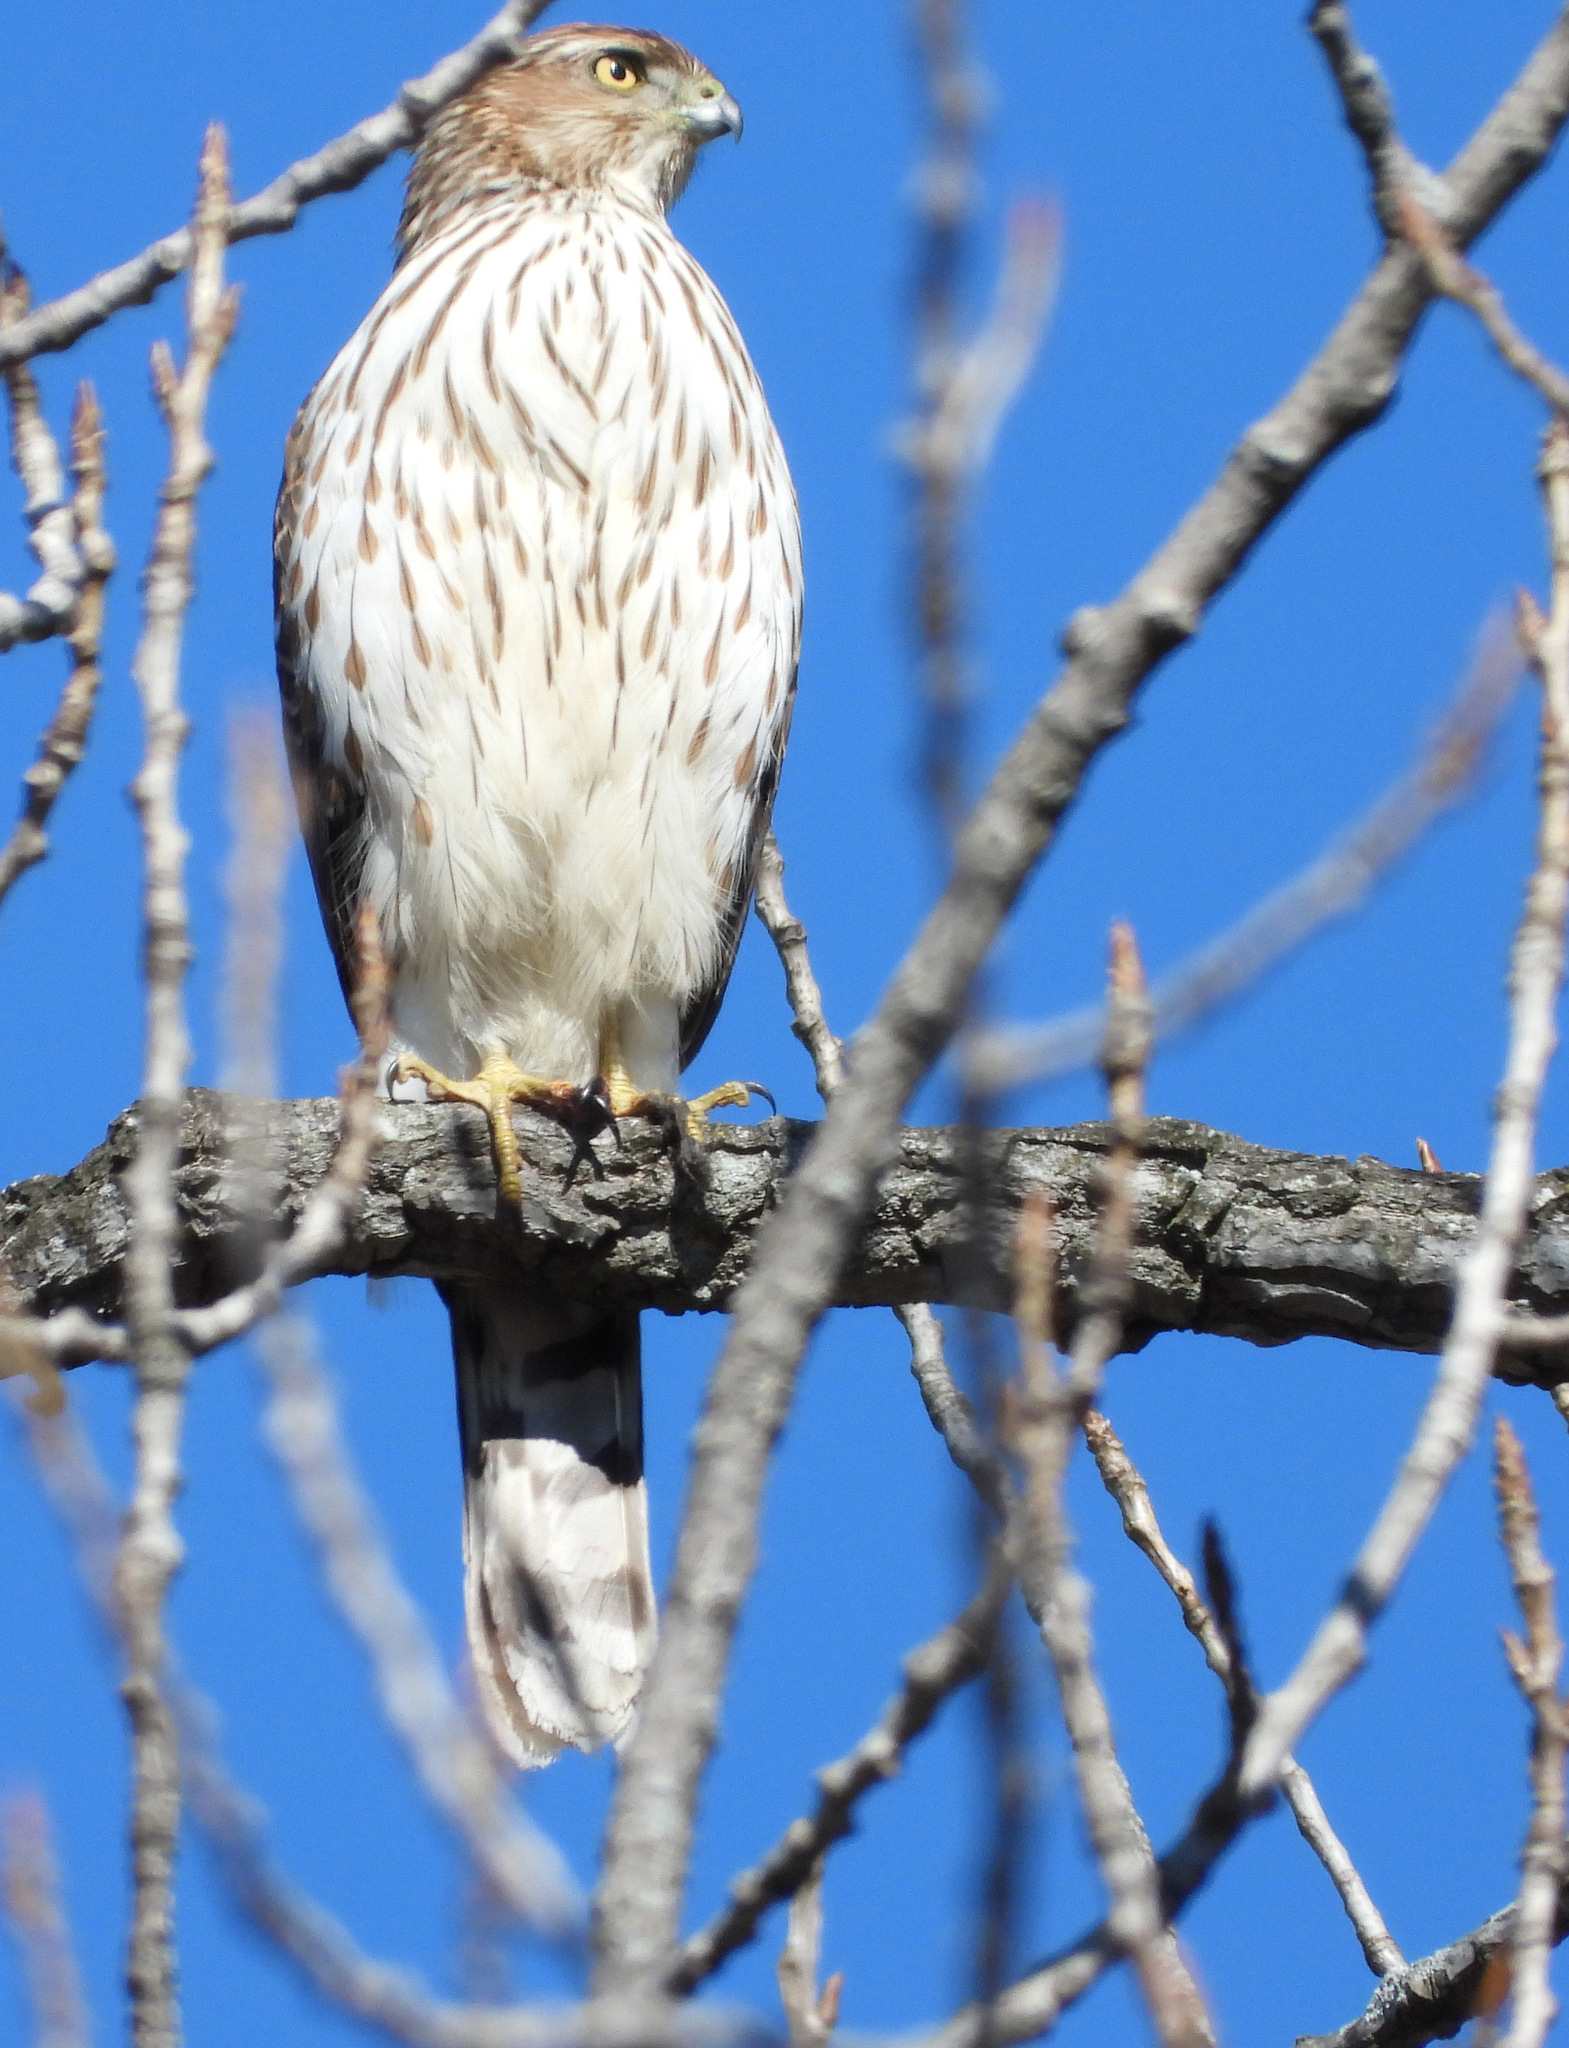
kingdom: Animalia
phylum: Chordata
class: Aves
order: Accipitriformes
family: Accipitridae
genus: Accipiter
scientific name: Accipiter cooperii
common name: Cooper's hawk
